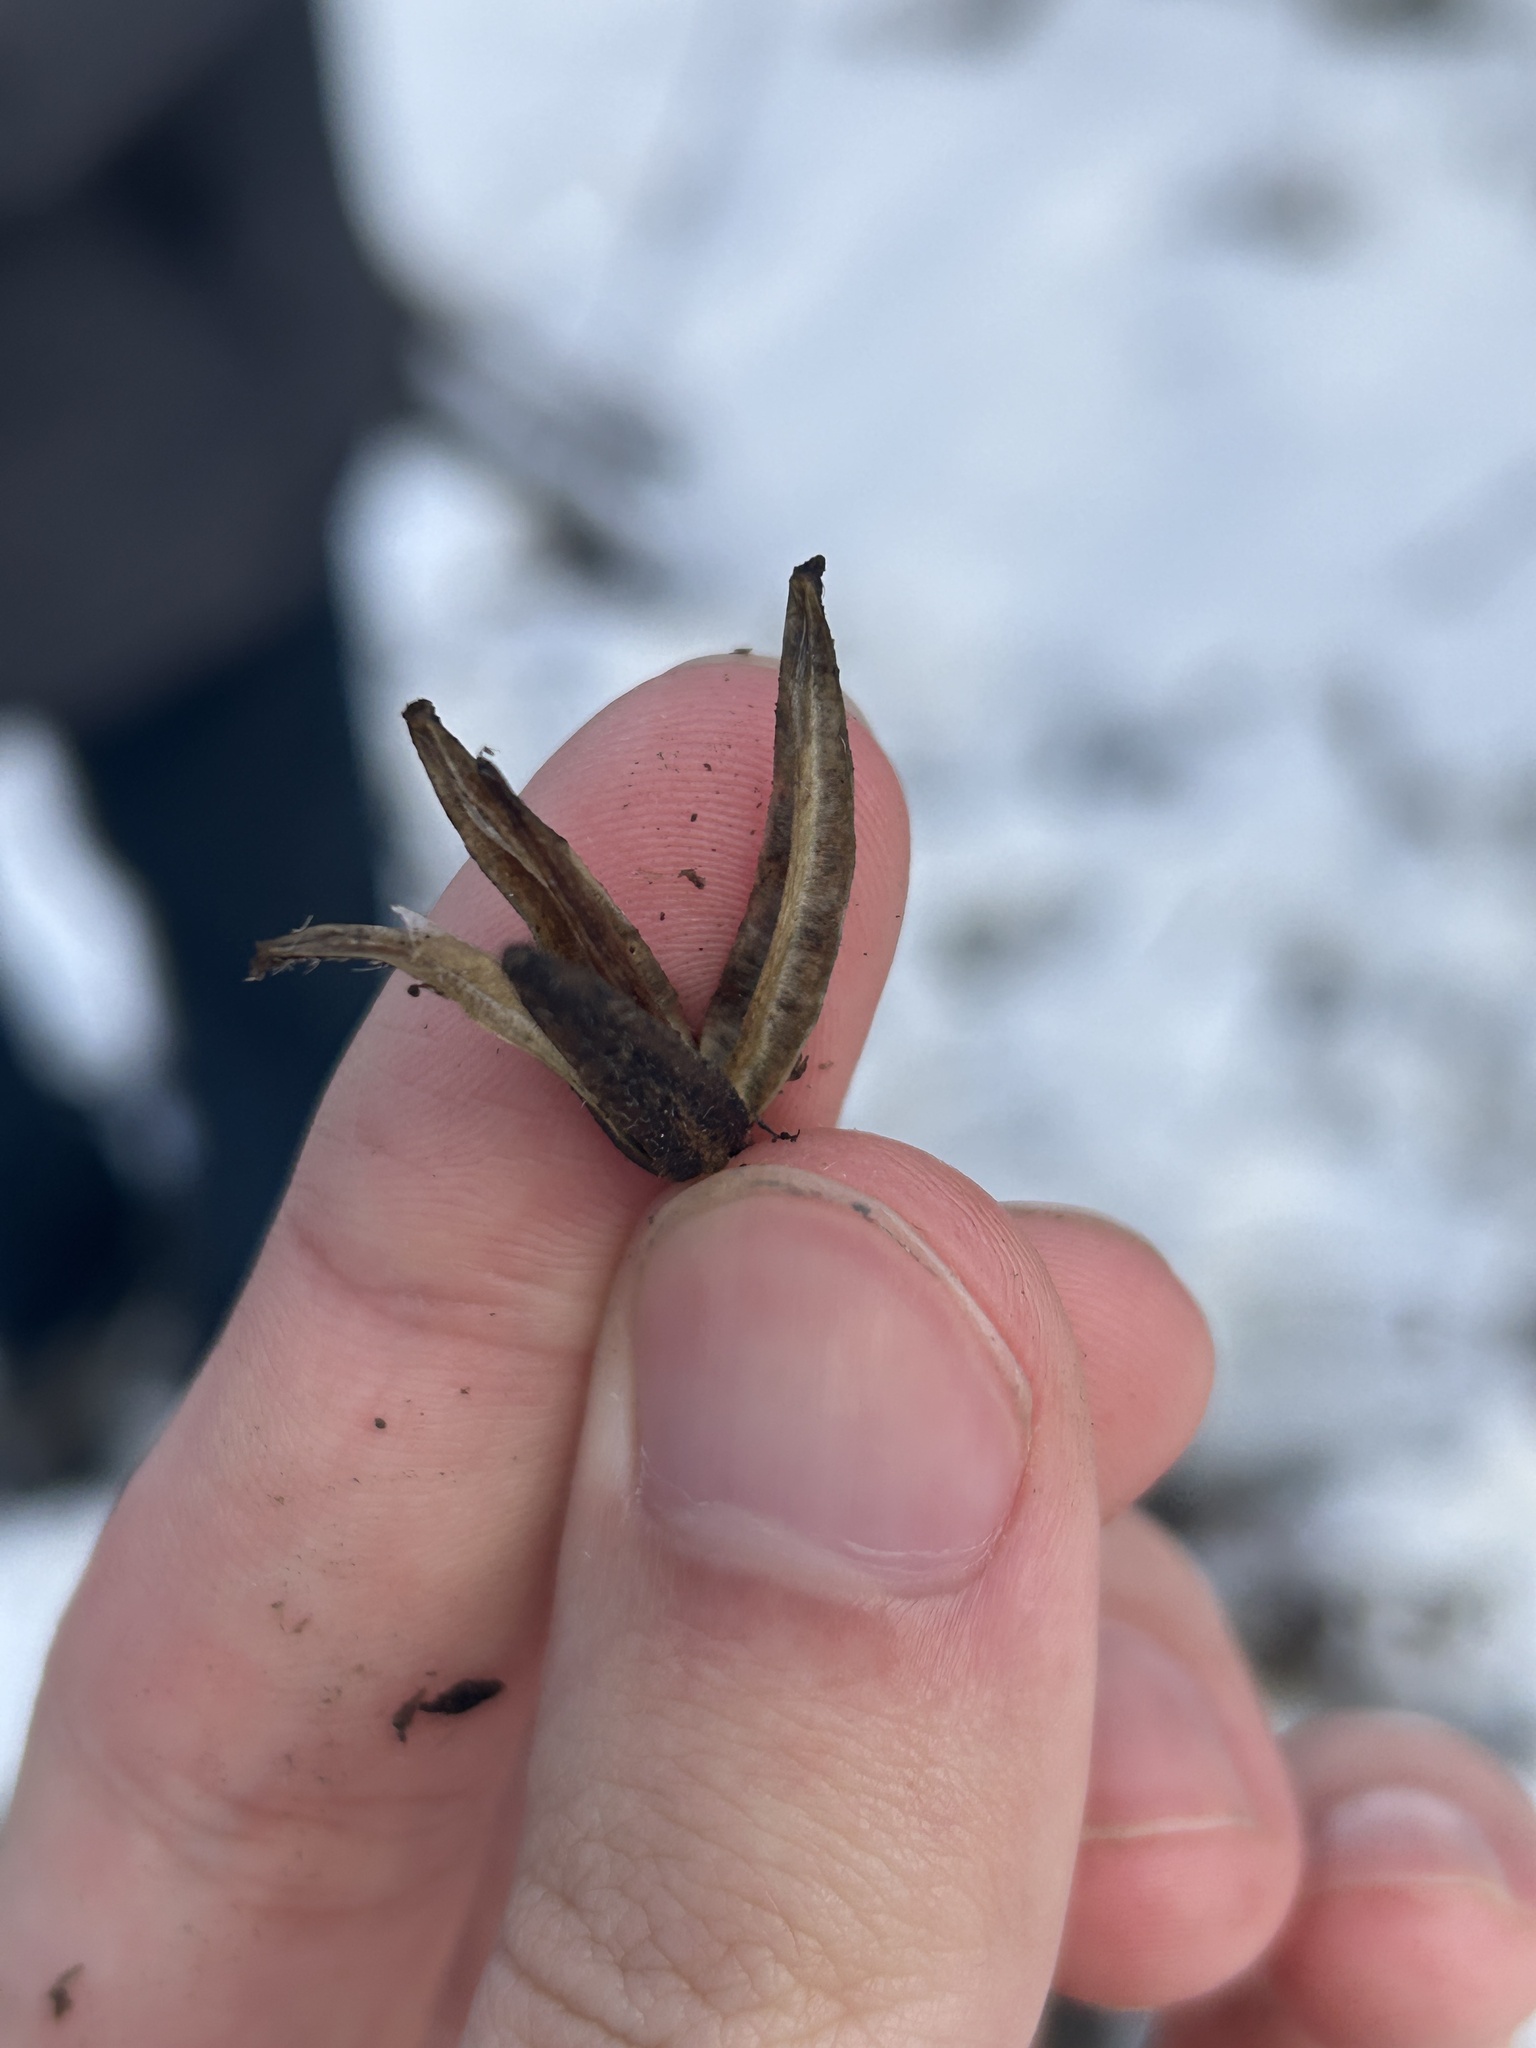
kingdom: Plantae
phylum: Tracheophyta
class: Magnoliopsida
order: Myrtales
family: Onagraceae
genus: Oenothera
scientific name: Oenothera
